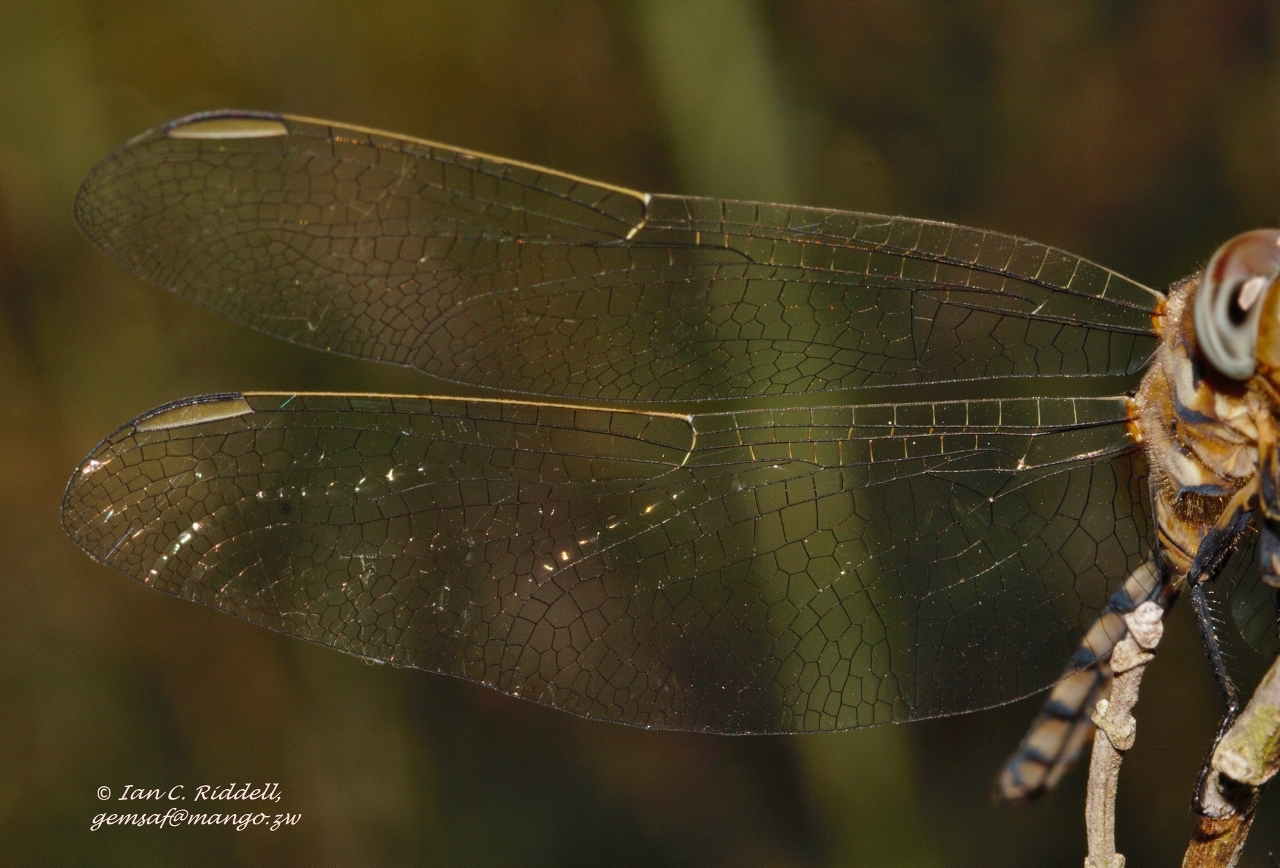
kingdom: Animalia
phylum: Arthropoda
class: Insecta
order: Odonata
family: Libellulidae
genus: Orthetrum
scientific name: Orthetrum brachiale
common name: Banded skimmer
